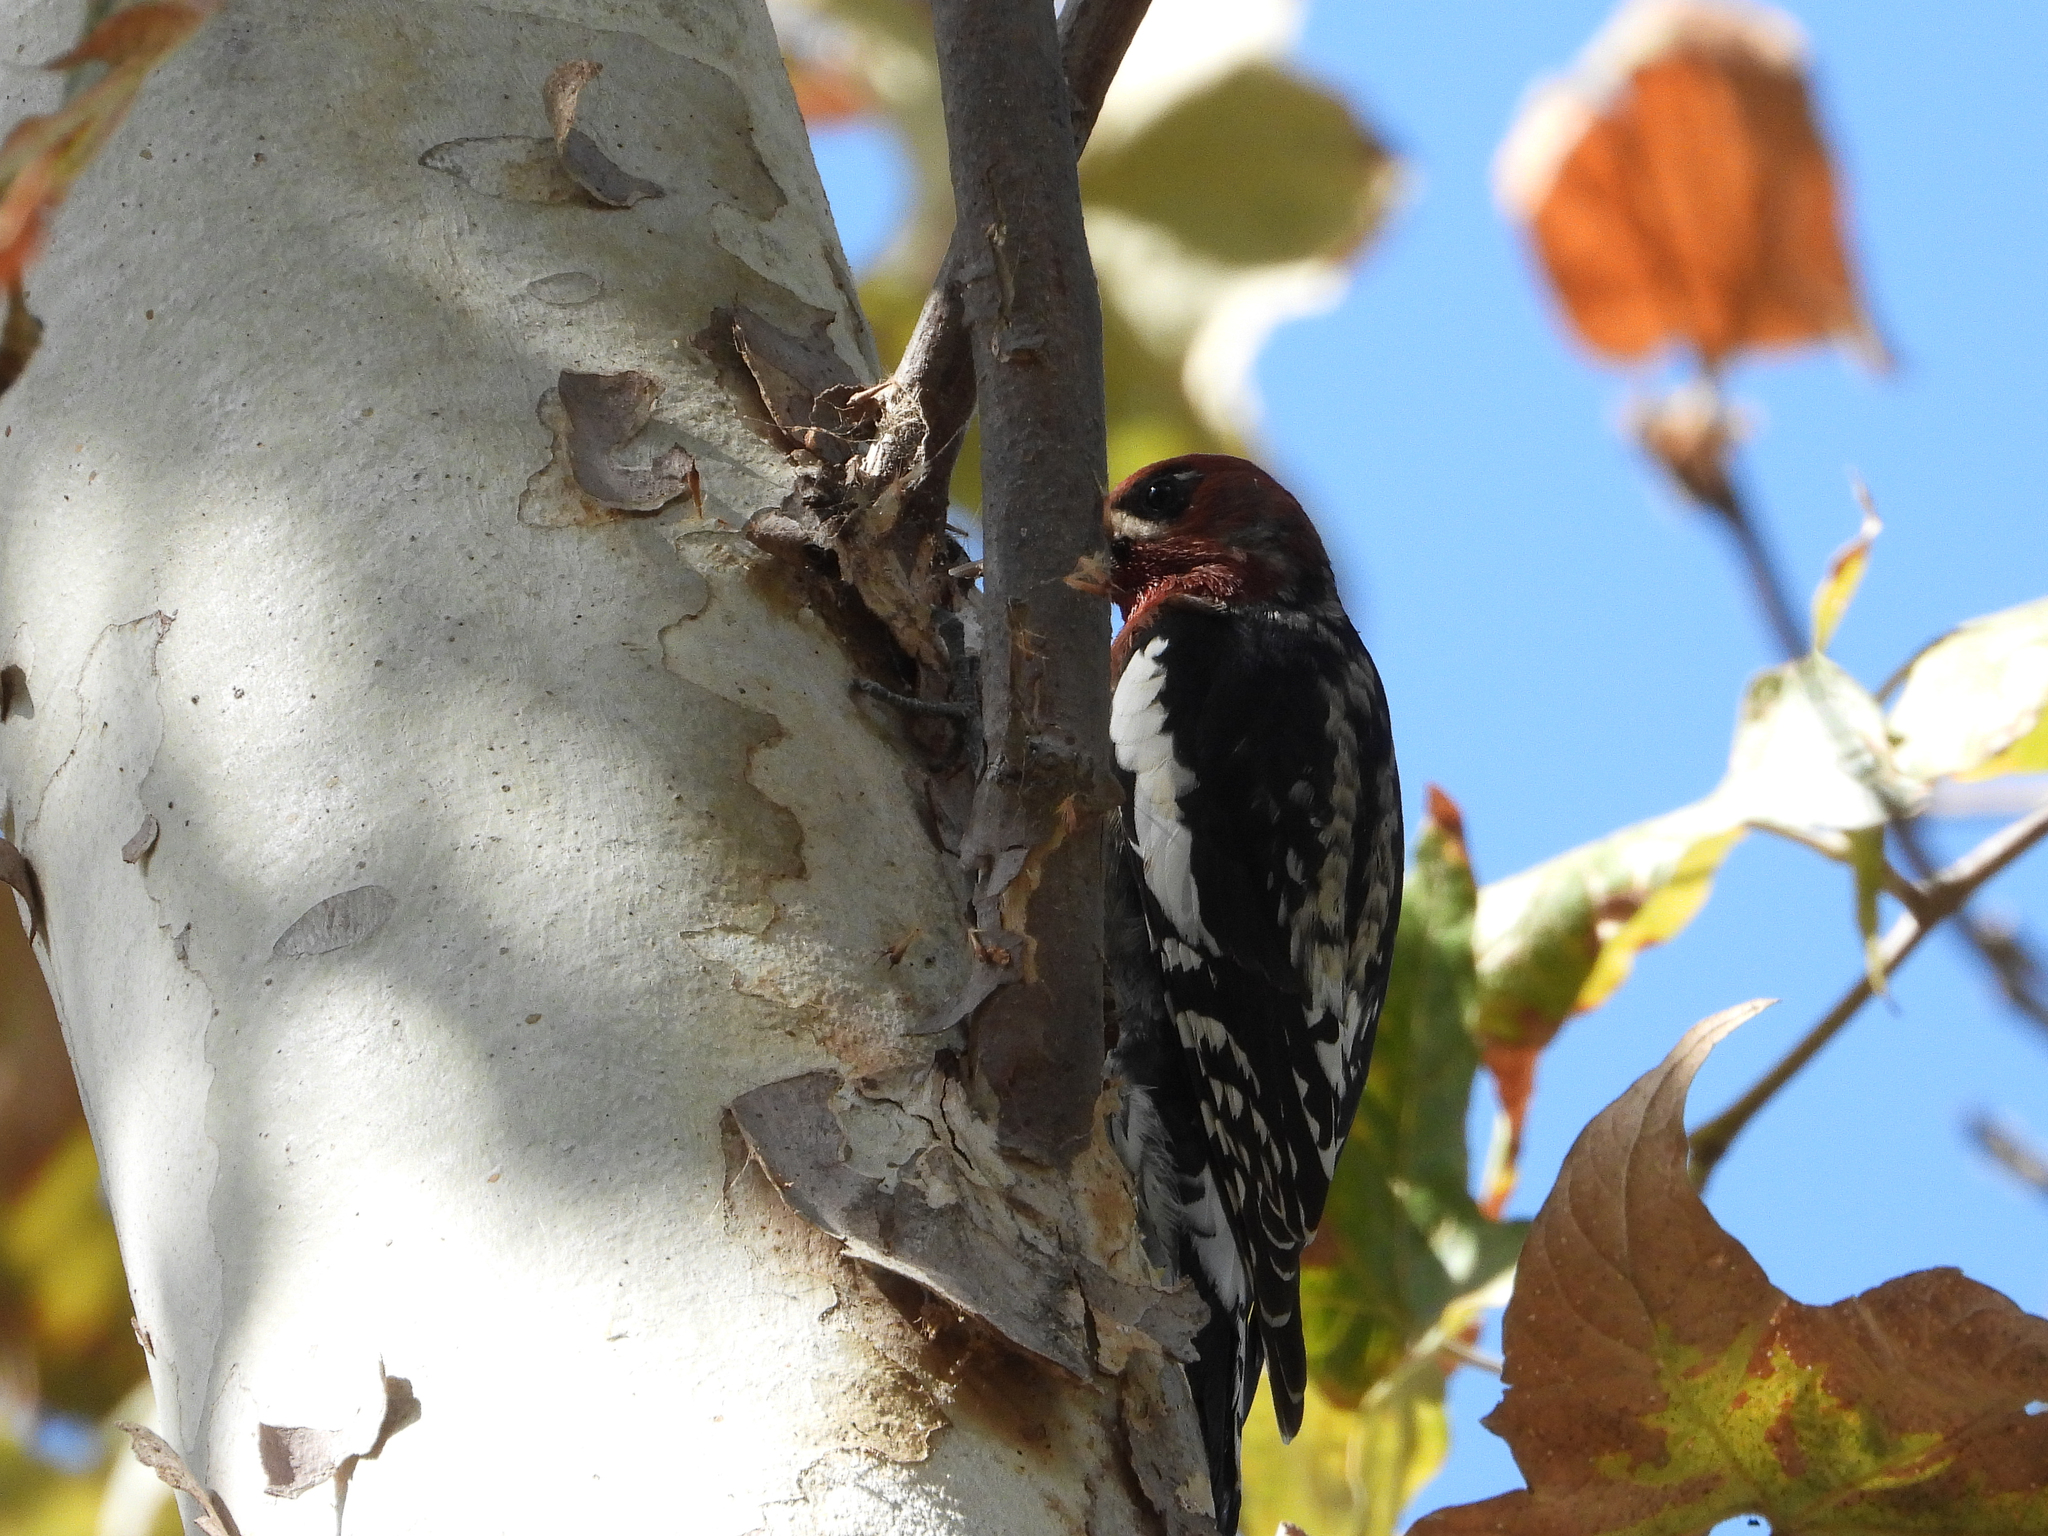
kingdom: Animalia
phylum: Chordata
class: Aves
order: Piciformes
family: Picidae
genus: Sphyrapicus
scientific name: Sphyrapicus ruber
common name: Red-breasted sapsucker
